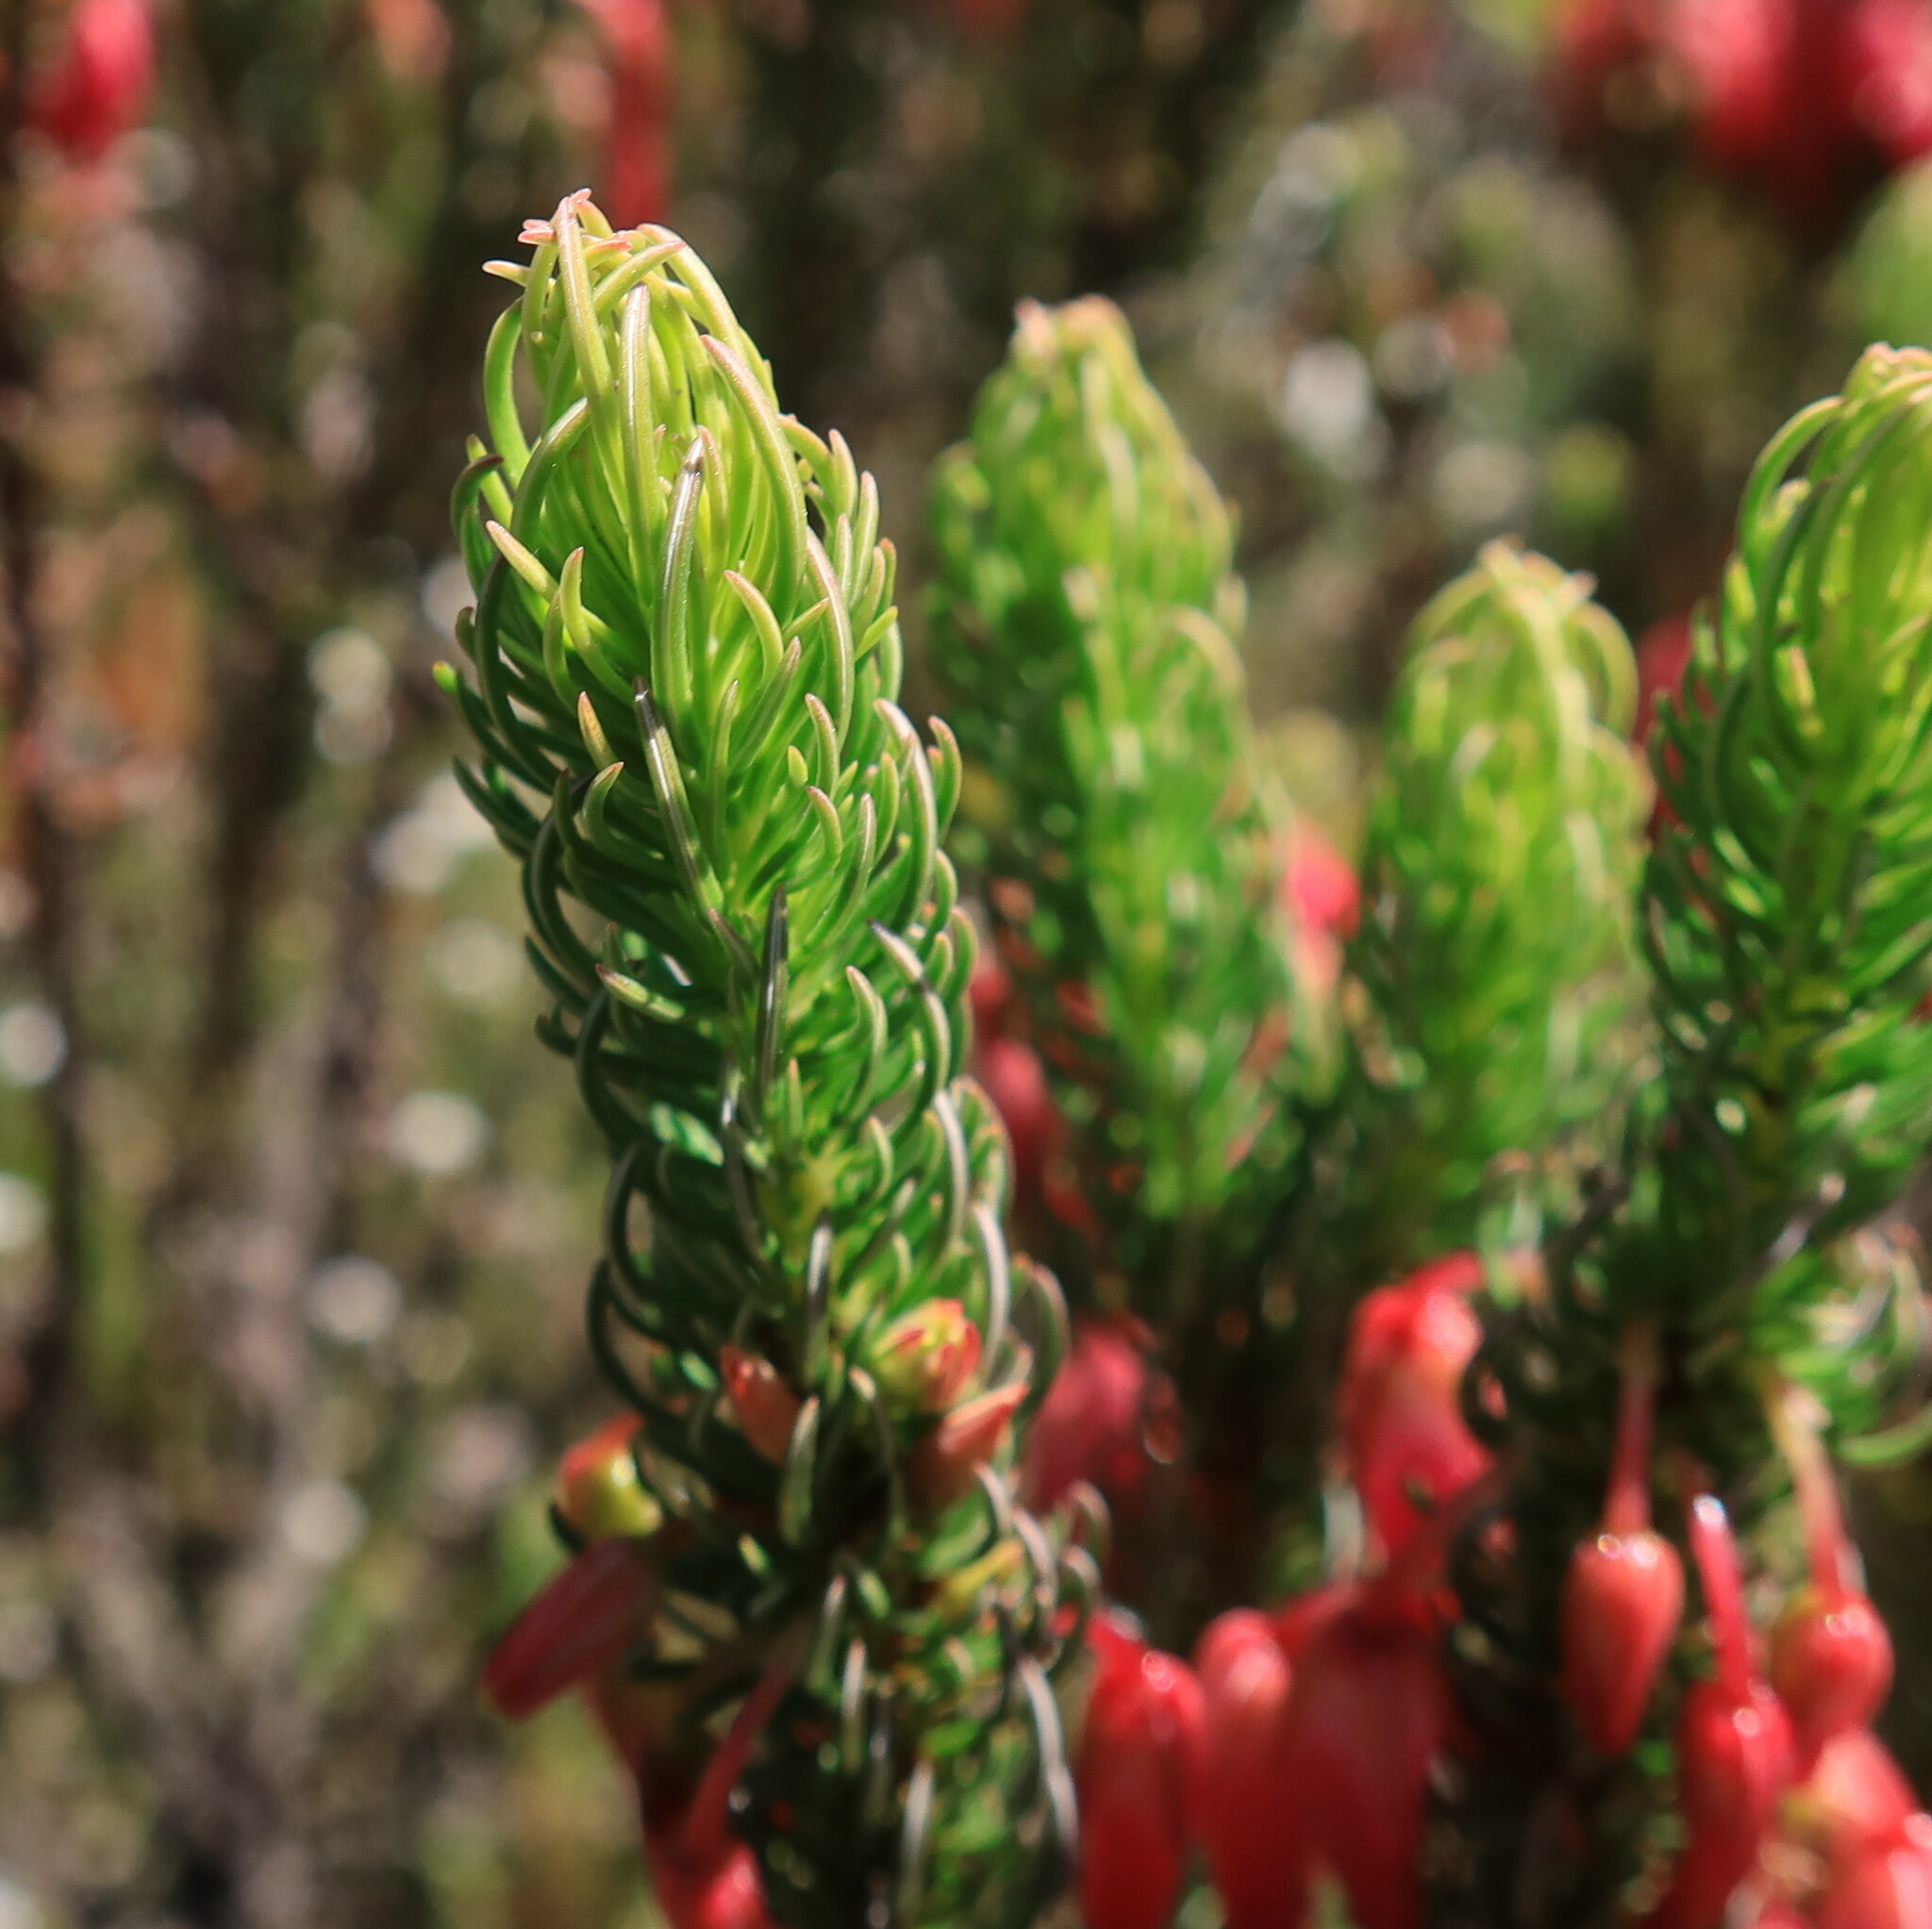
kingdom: Plantae
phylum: Tracheophyta
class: Magnoliopsida
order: Ericales
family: Ericaceae
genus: Erica
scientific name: Erica plukenetii
